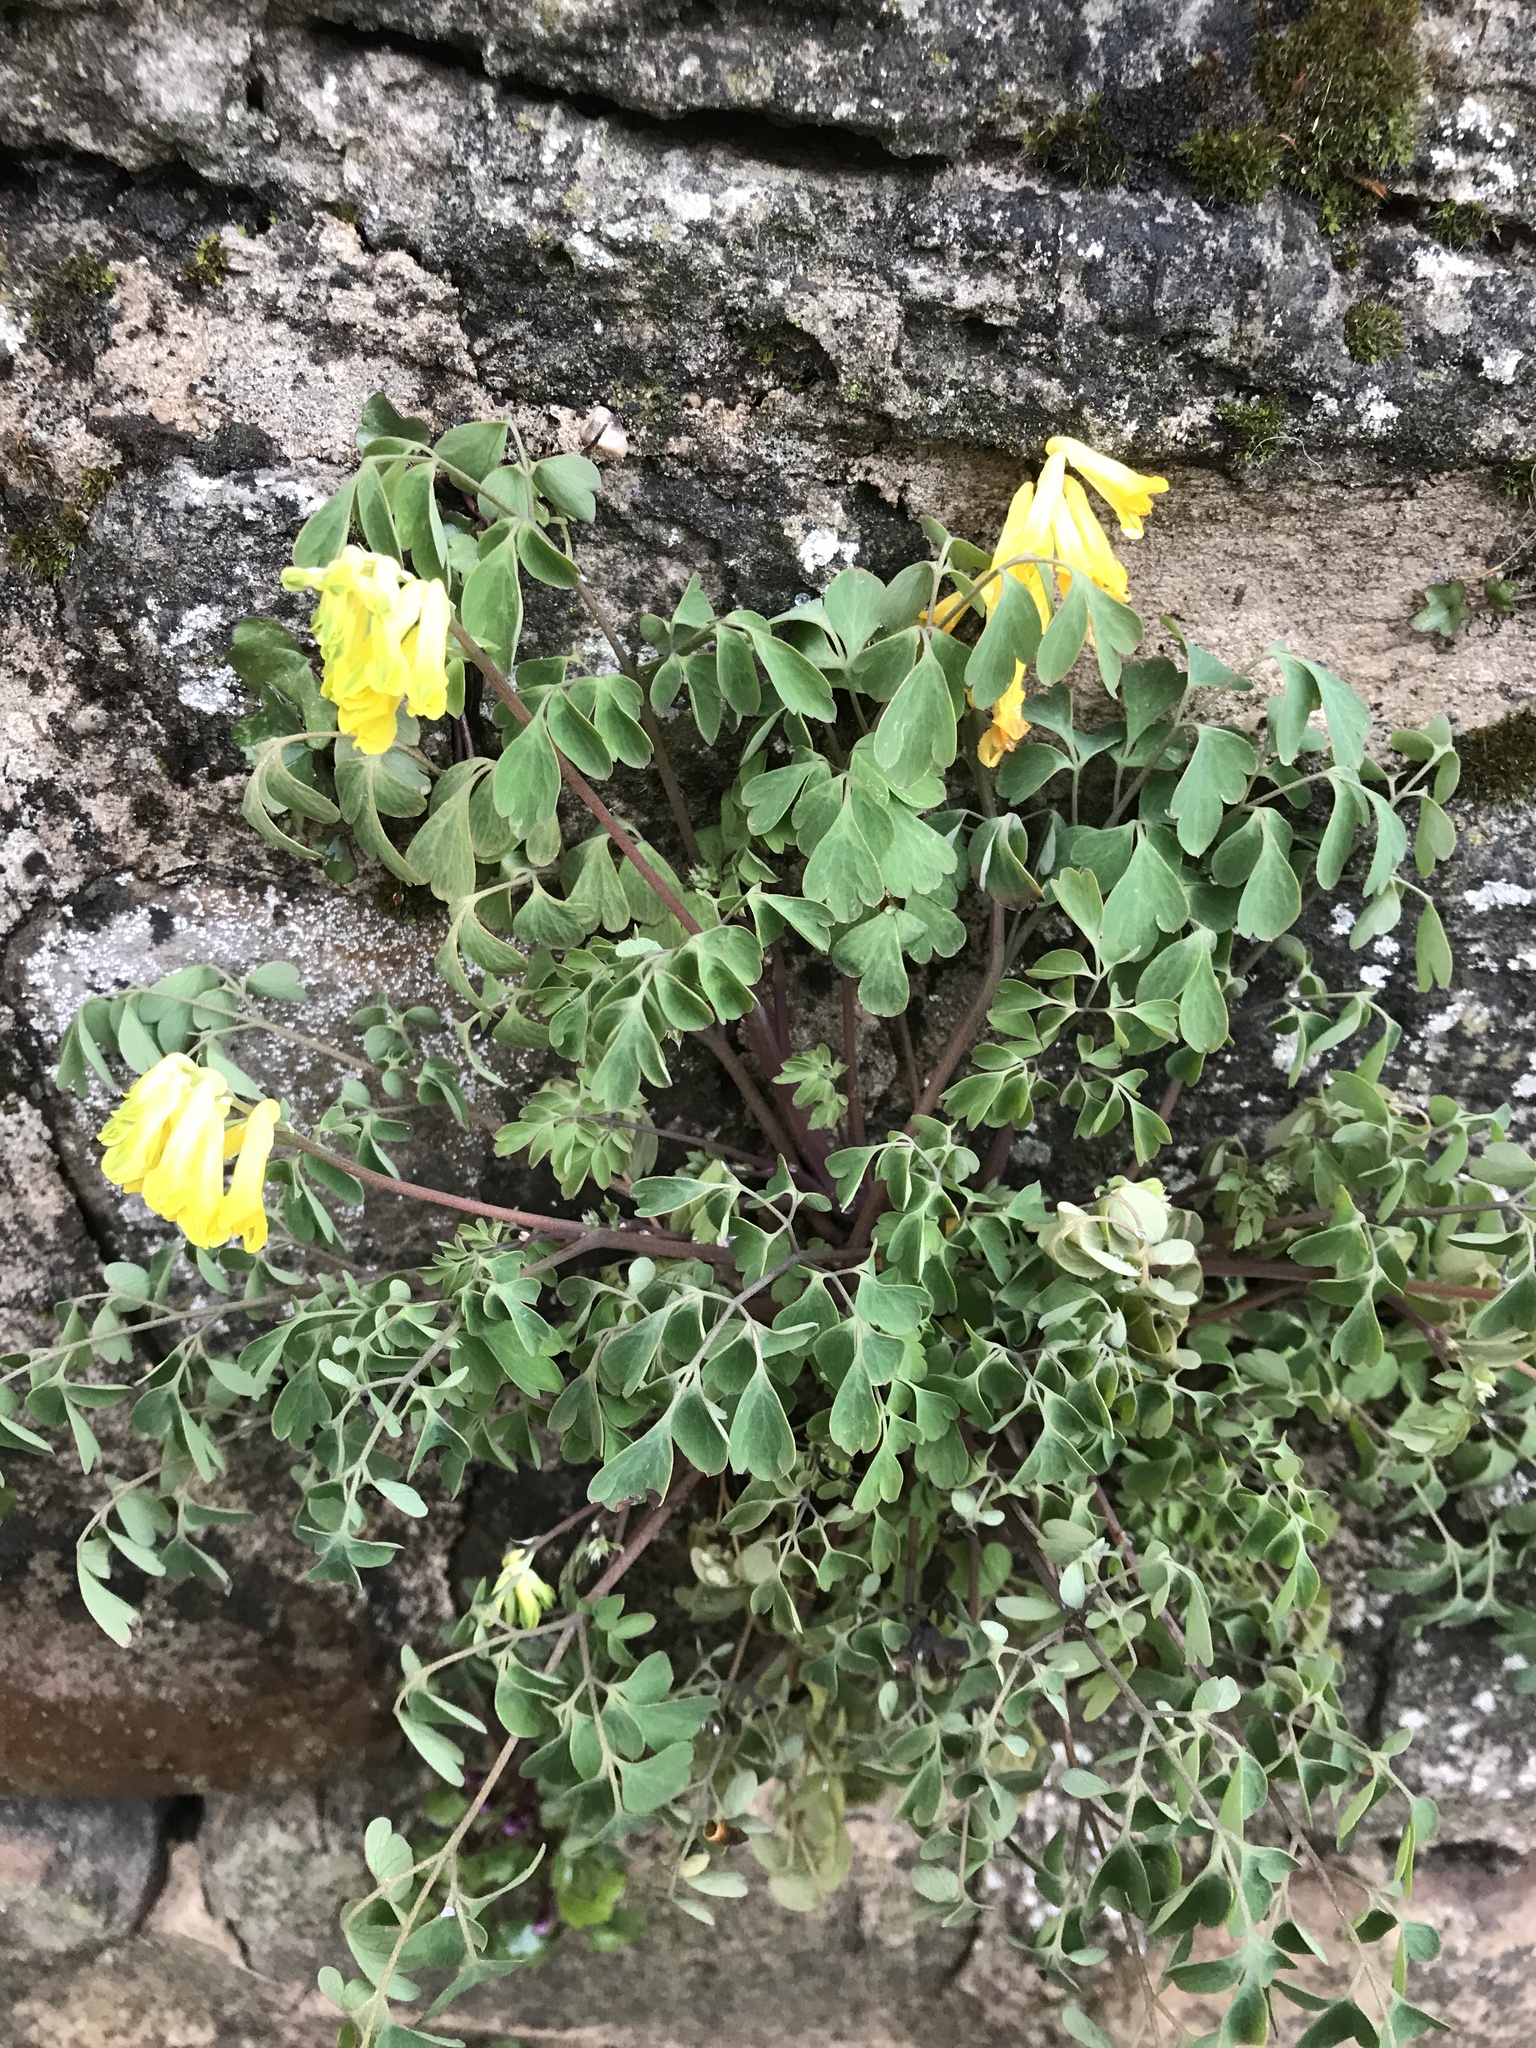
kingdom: Plantae
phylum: Tracheophyta
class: Magnoliopsida
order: Ranunculales
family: Papaveraceae
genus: Pseudofumaria
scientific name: Pseudofumaria lutea
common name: Yellow corydalis
